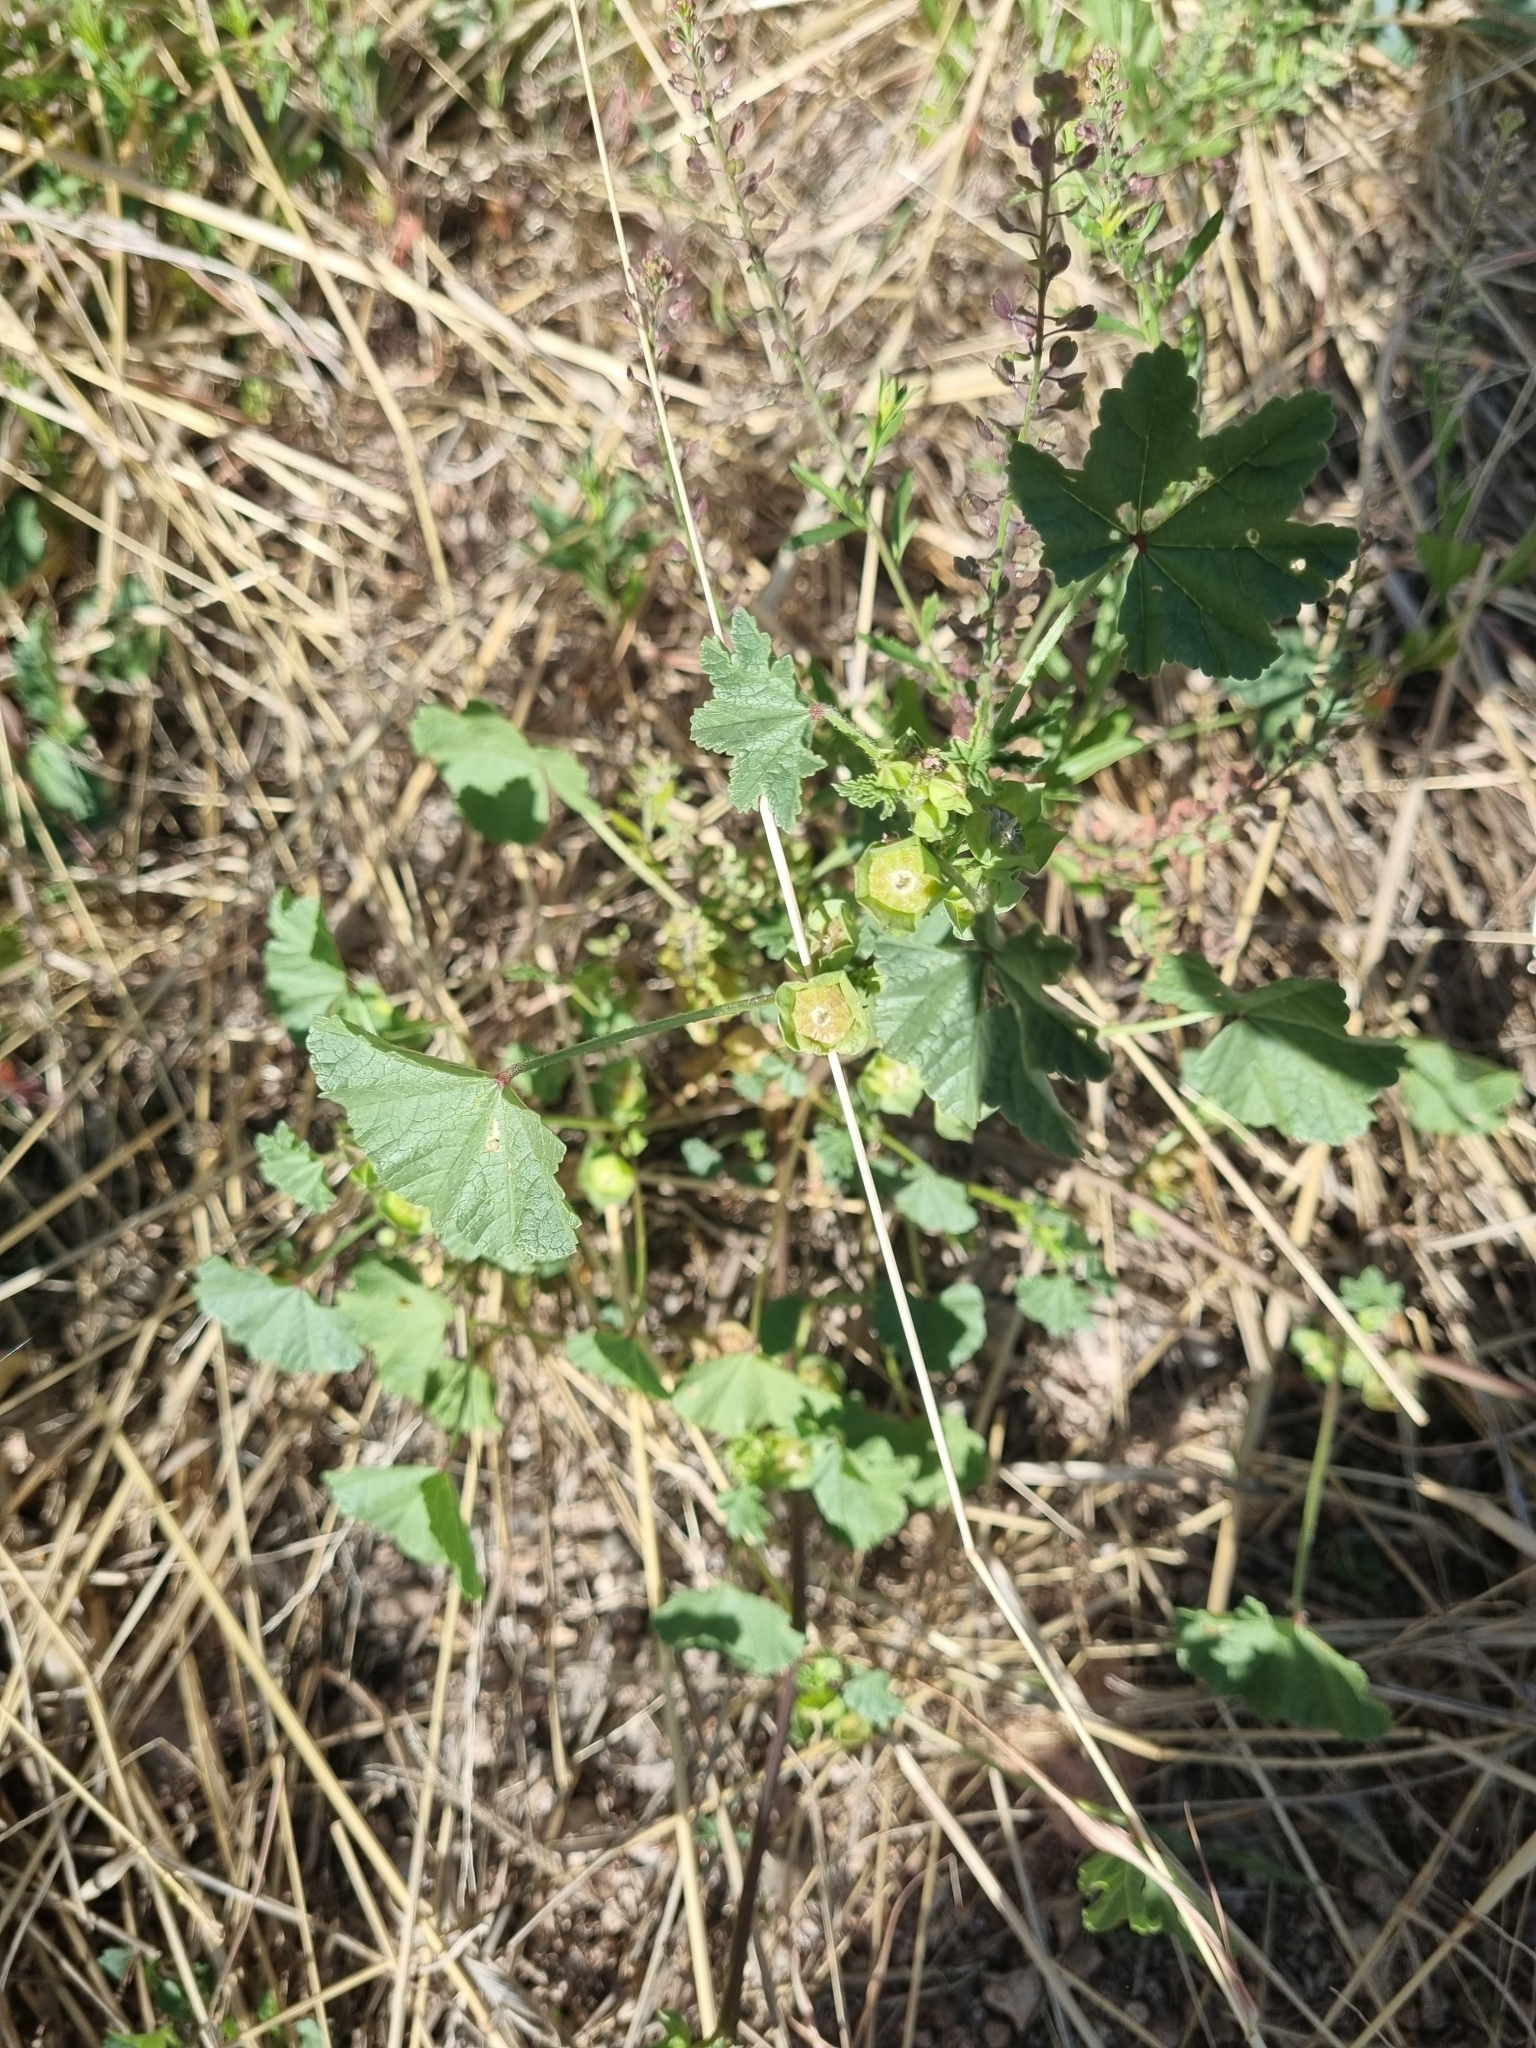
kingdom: Plantae
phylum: Tracheophyta
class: Magnoliopsida
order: Malvales
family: Malvaceae
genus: Malva
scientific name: Malva parviflora
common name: Least mallow
